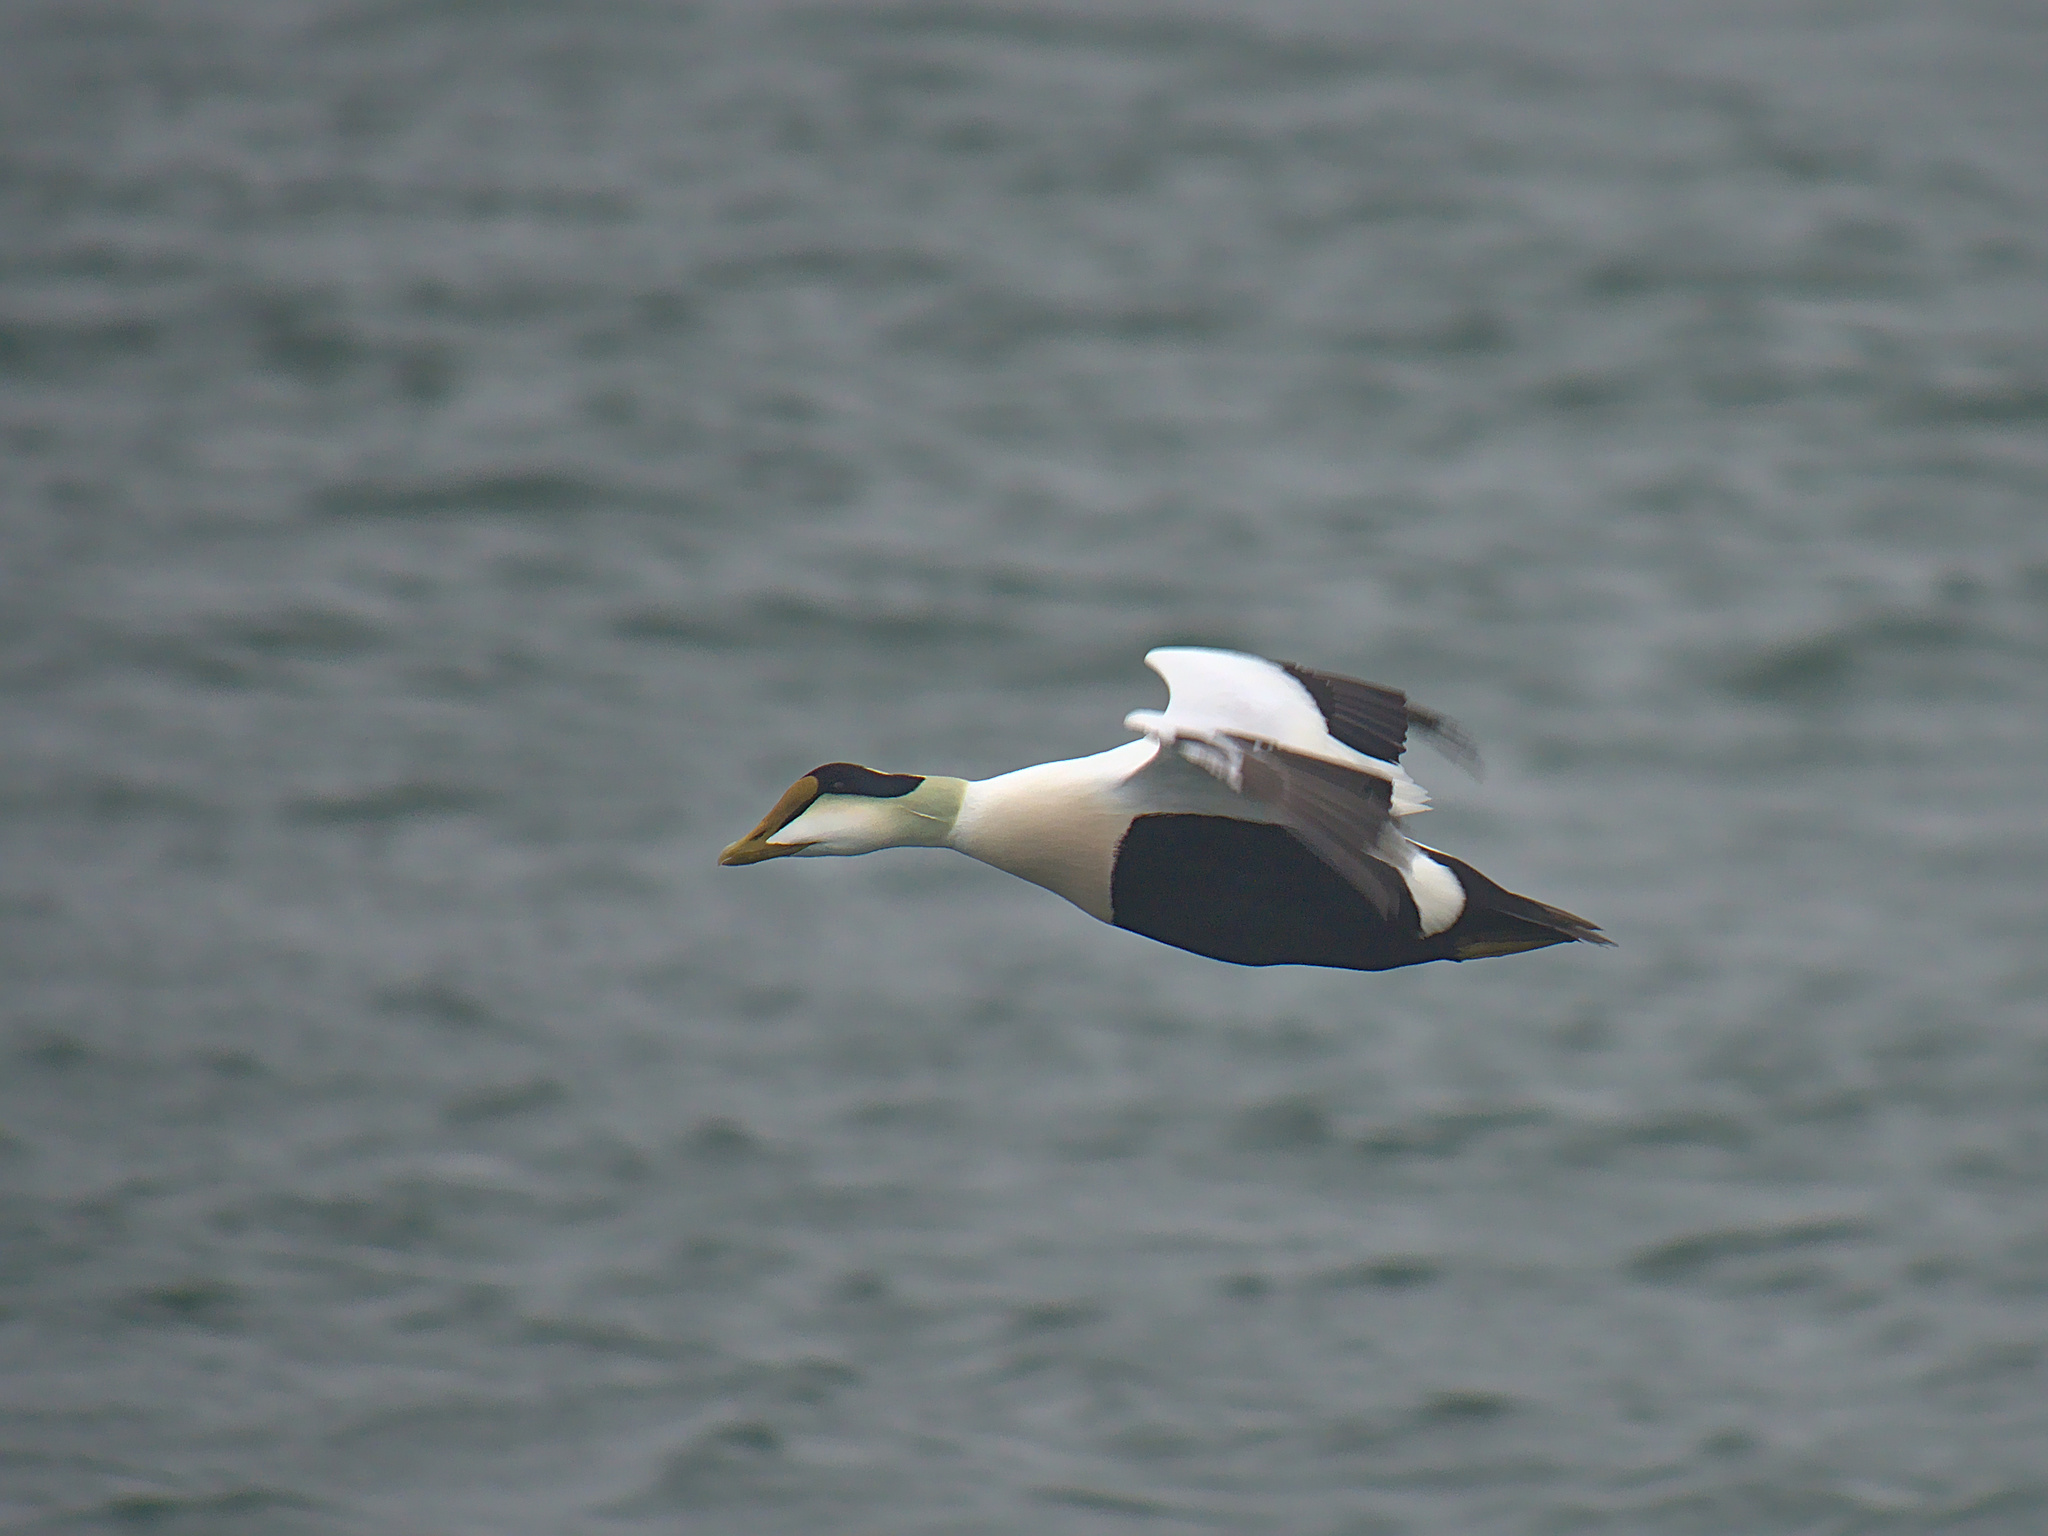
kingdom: Animalia
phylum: Chordata
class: Aves
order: Anseriformes
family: Anatidae
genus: Somateria
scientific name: Somateria mollissima
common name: Common eider
